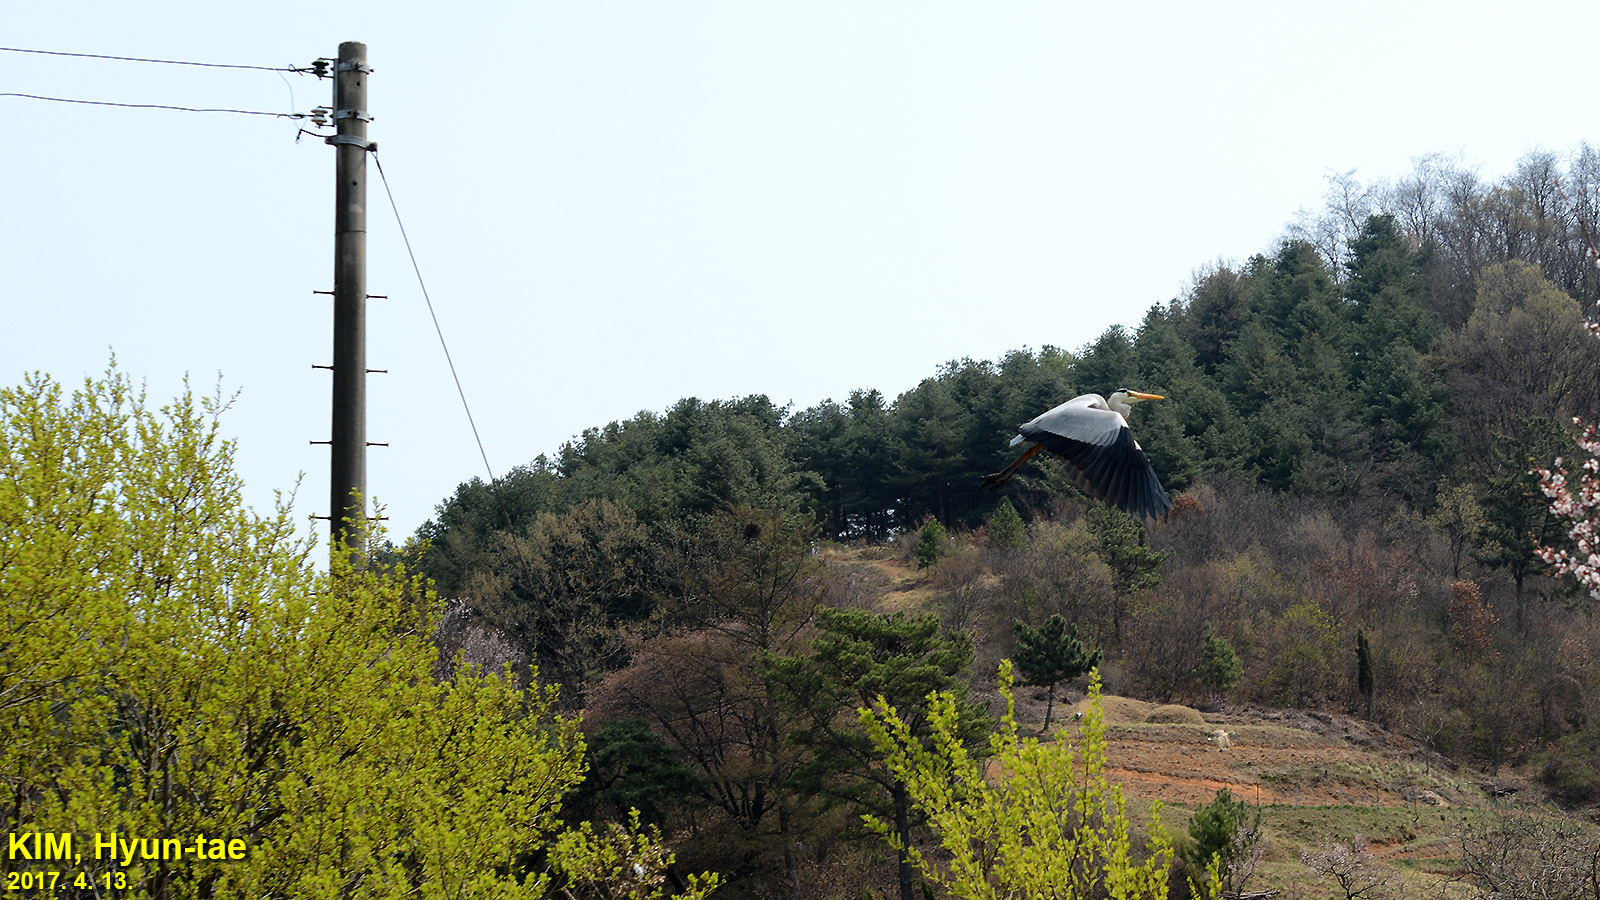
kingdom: Animalia
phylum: Chordata
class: Aves
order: Pelecaniformes
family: Ardeidae
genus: Ardea
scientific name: Ardea cinerea
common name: Grey heron
